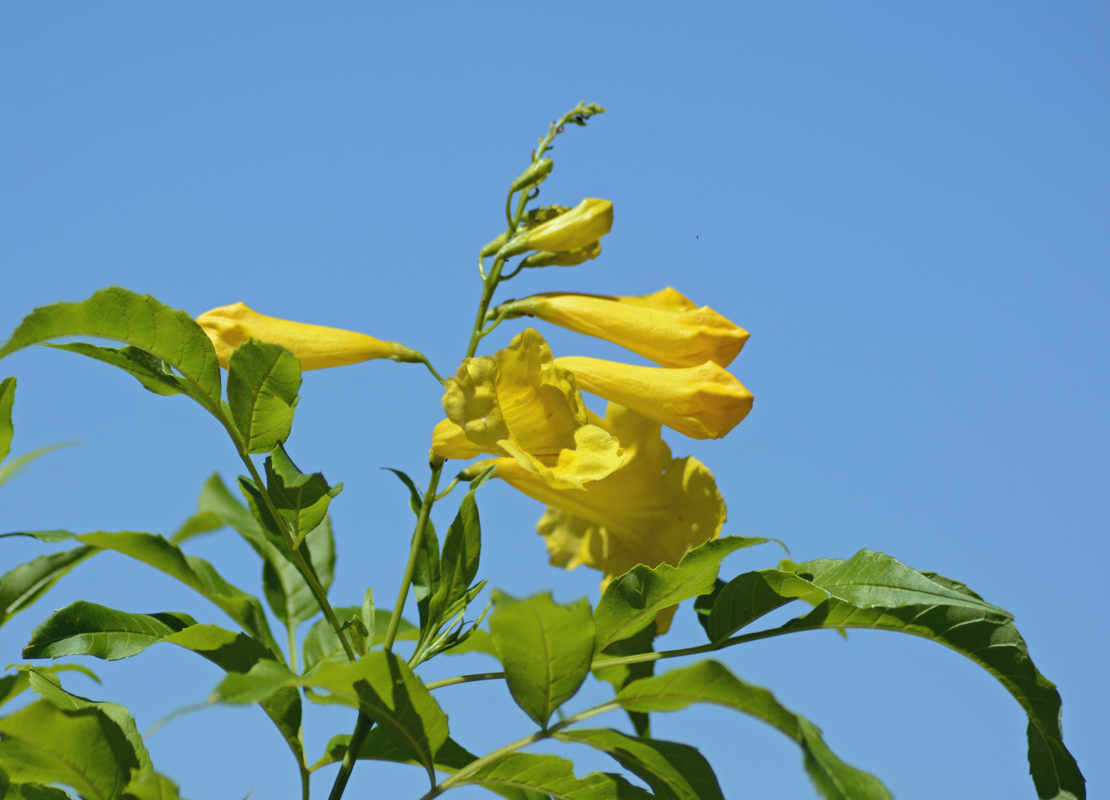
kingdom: Plantae
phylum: Tracheophyta
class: Magnoliopsida
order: Lamiales
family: Bignoniaceae
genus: Tecoma
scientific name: Tecoma stans
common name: Yellow trumpetbush
